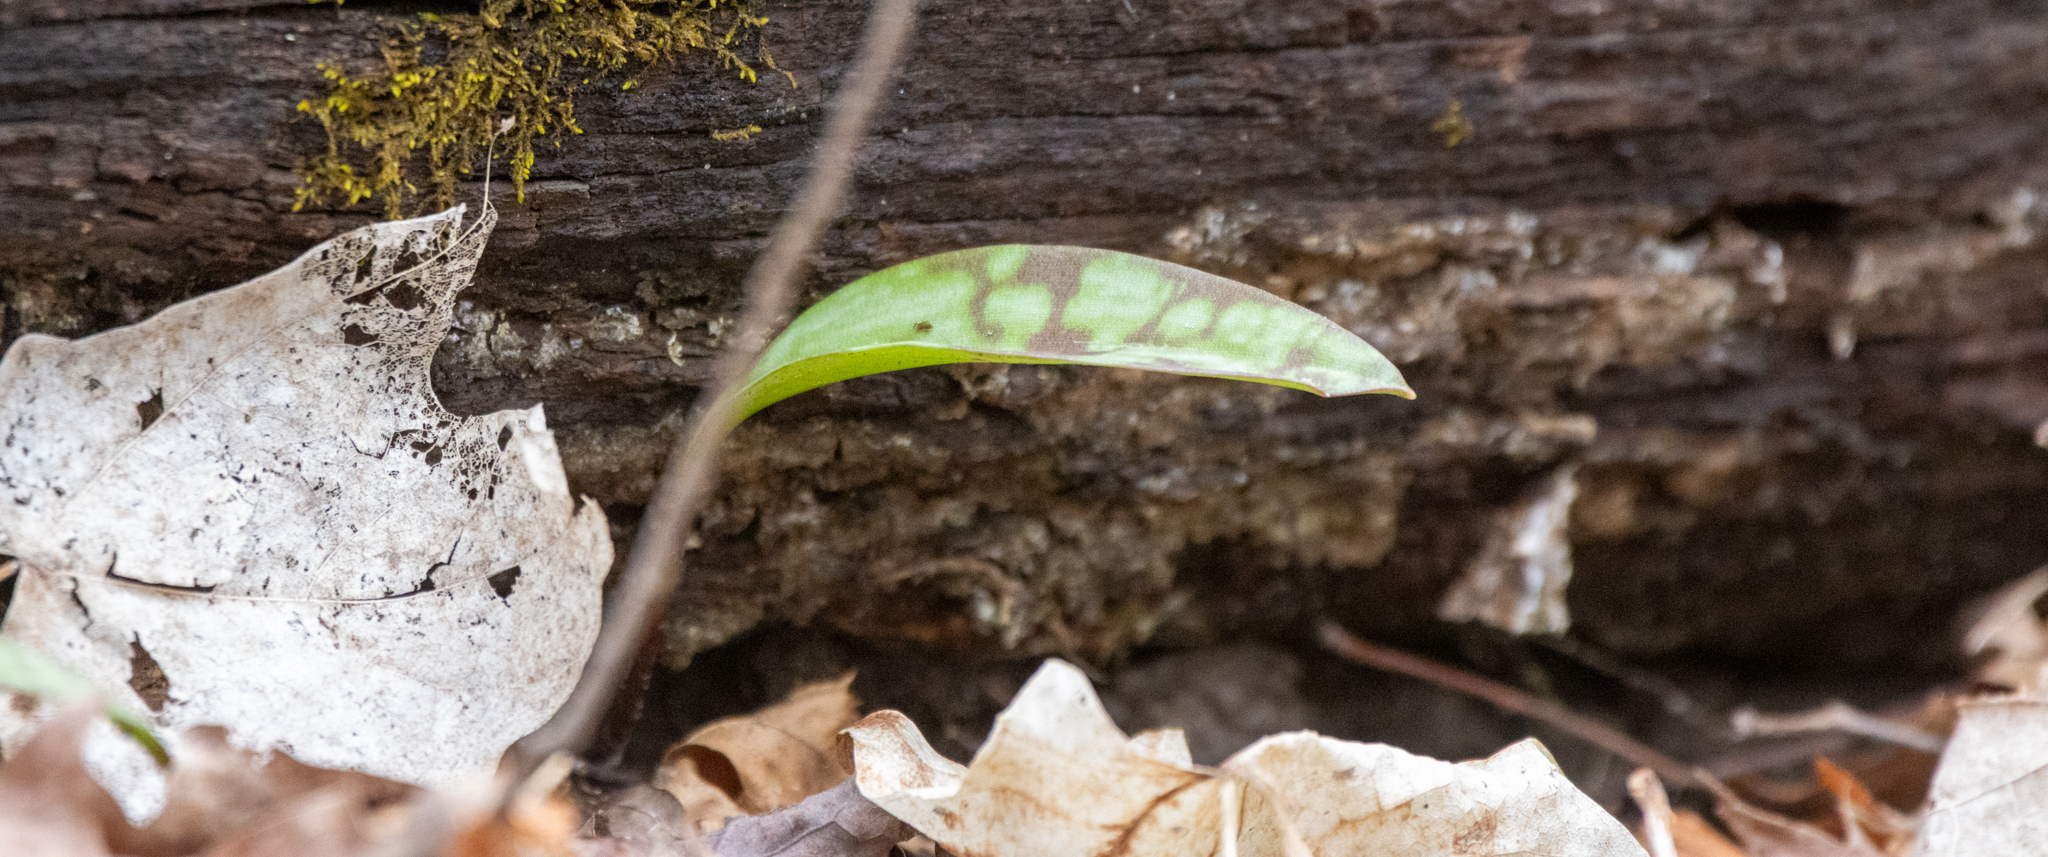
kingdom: Plantae
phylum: Tracheophyta
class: Liliopsida
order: Liliales
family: Liliaceae
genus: Erythronium
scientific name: Erythronium americanum
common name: Yellow adder's-tongue
